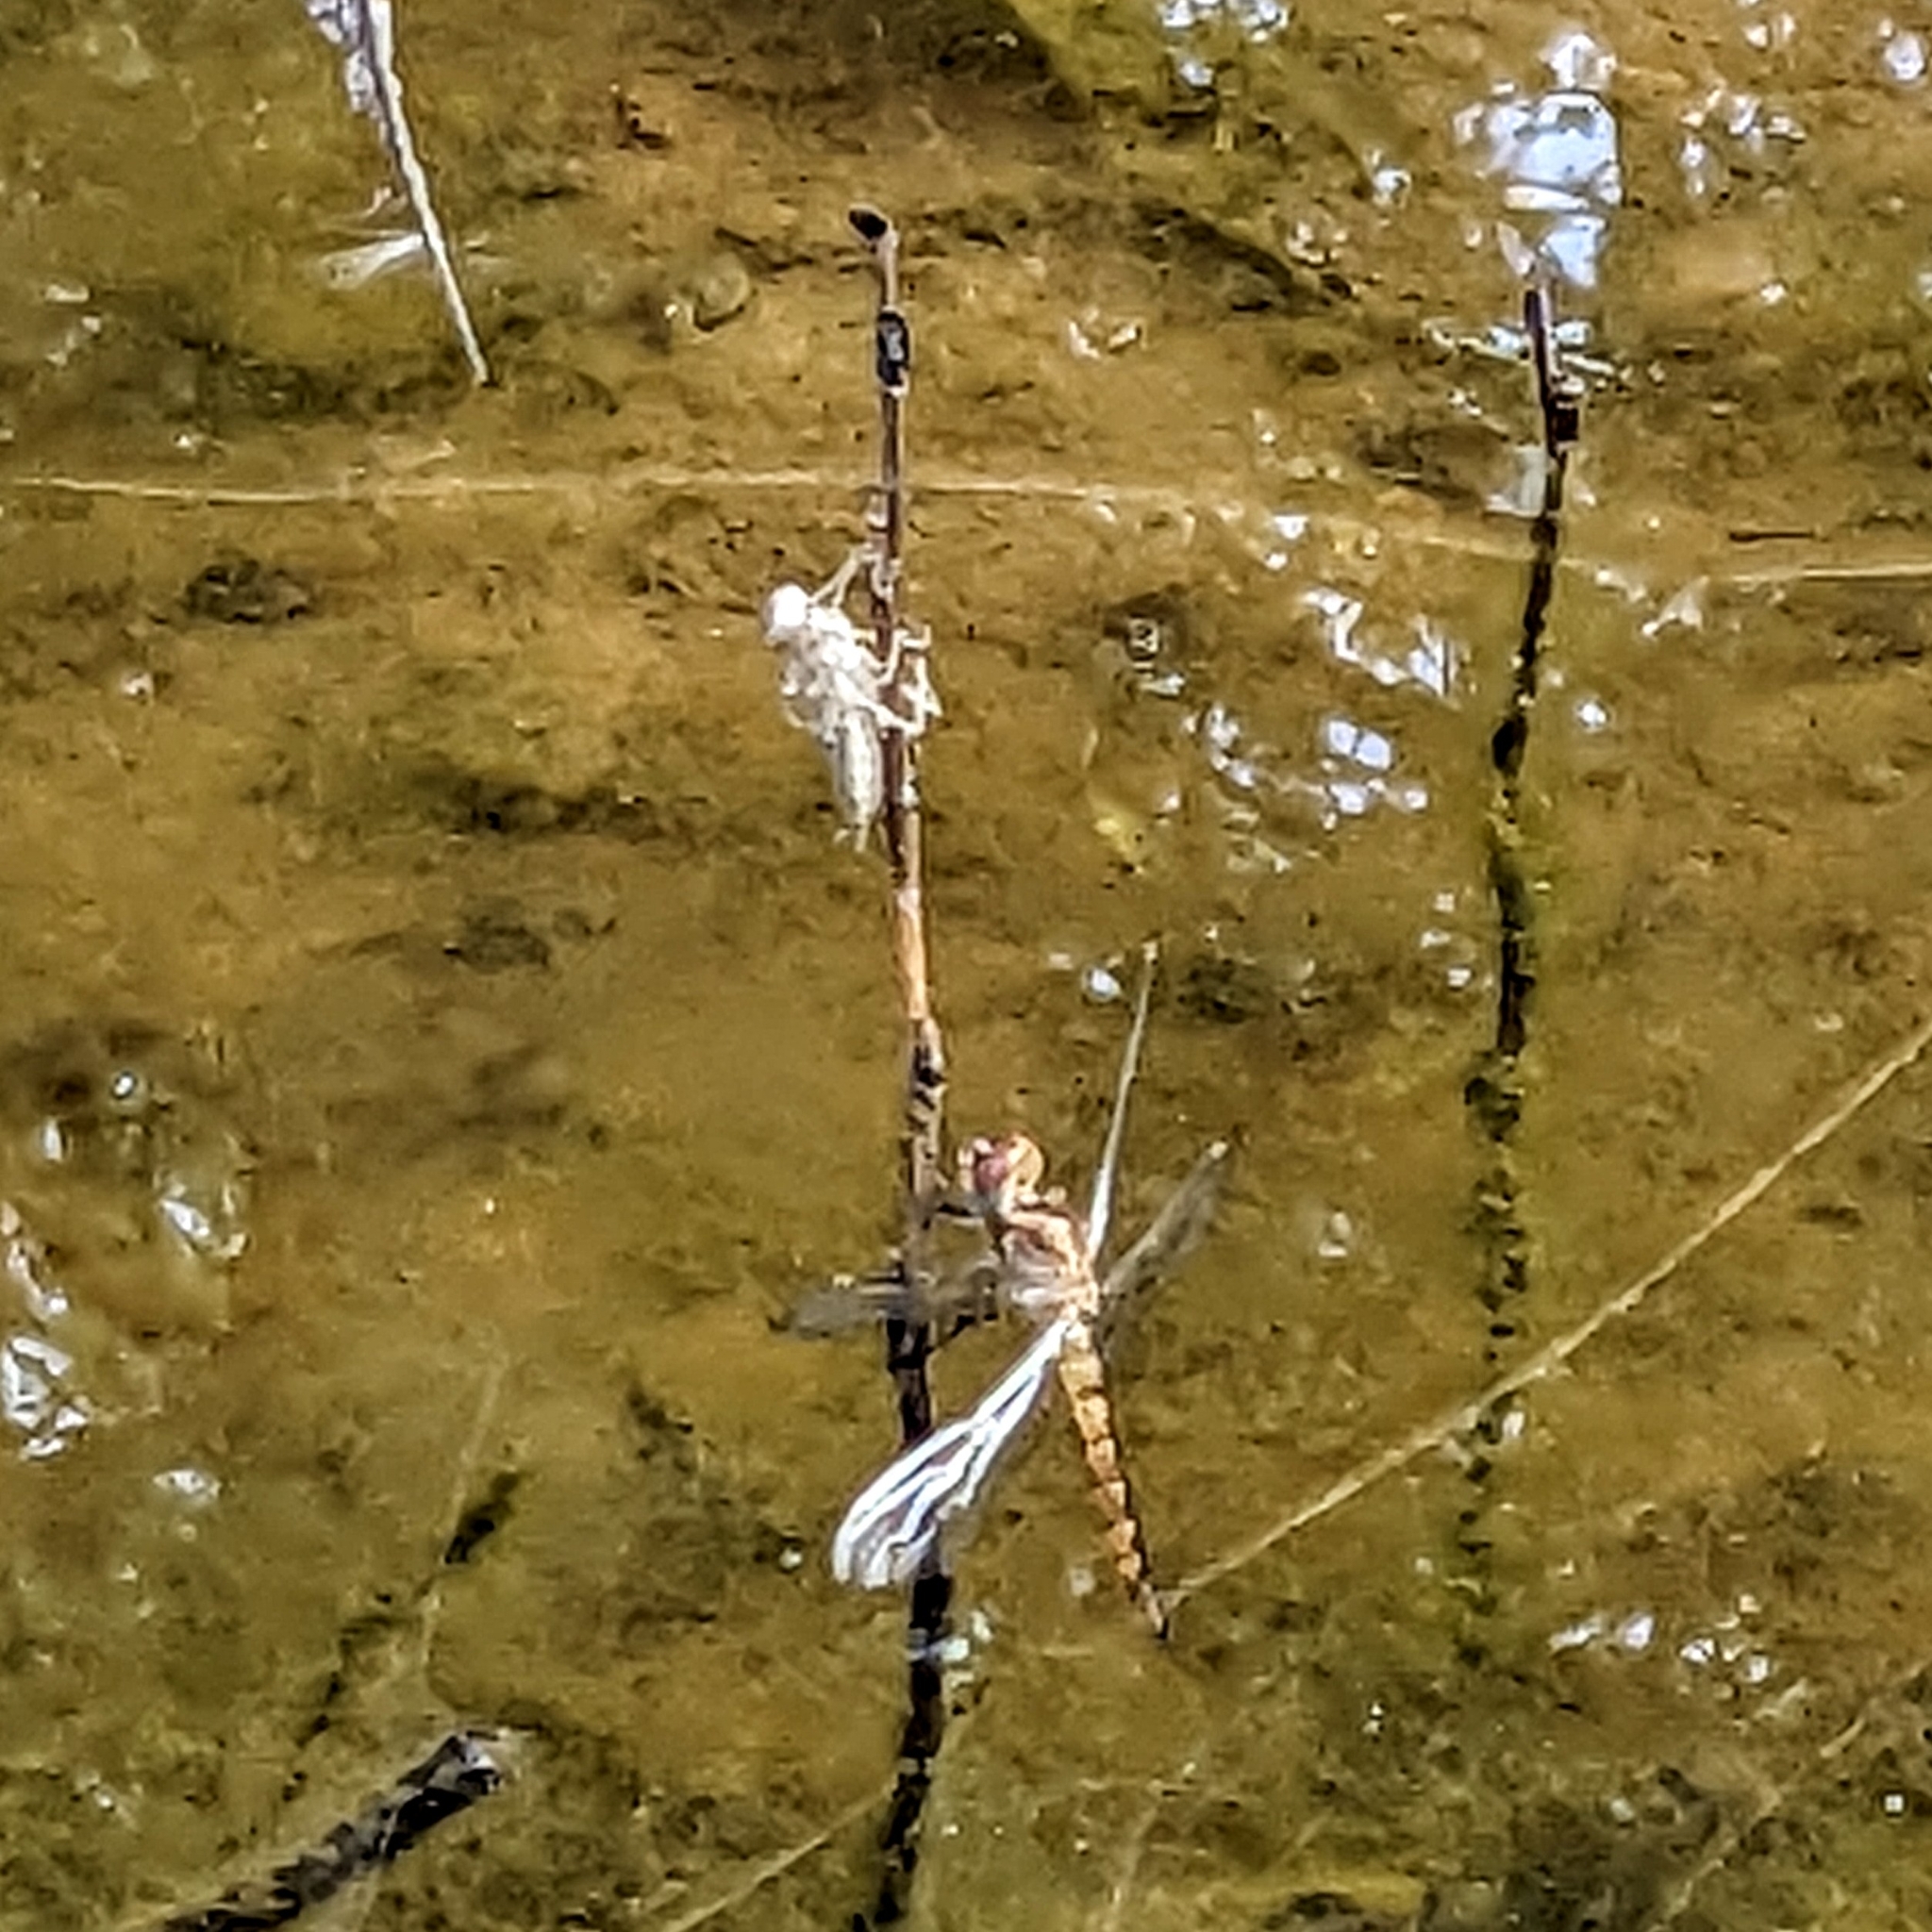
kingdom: Animalia
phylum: Arthropoda
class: Insecta
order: Odonata
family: Libellulidae
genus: Pantala
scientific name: Pantala flavescens
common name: Wandering glider
